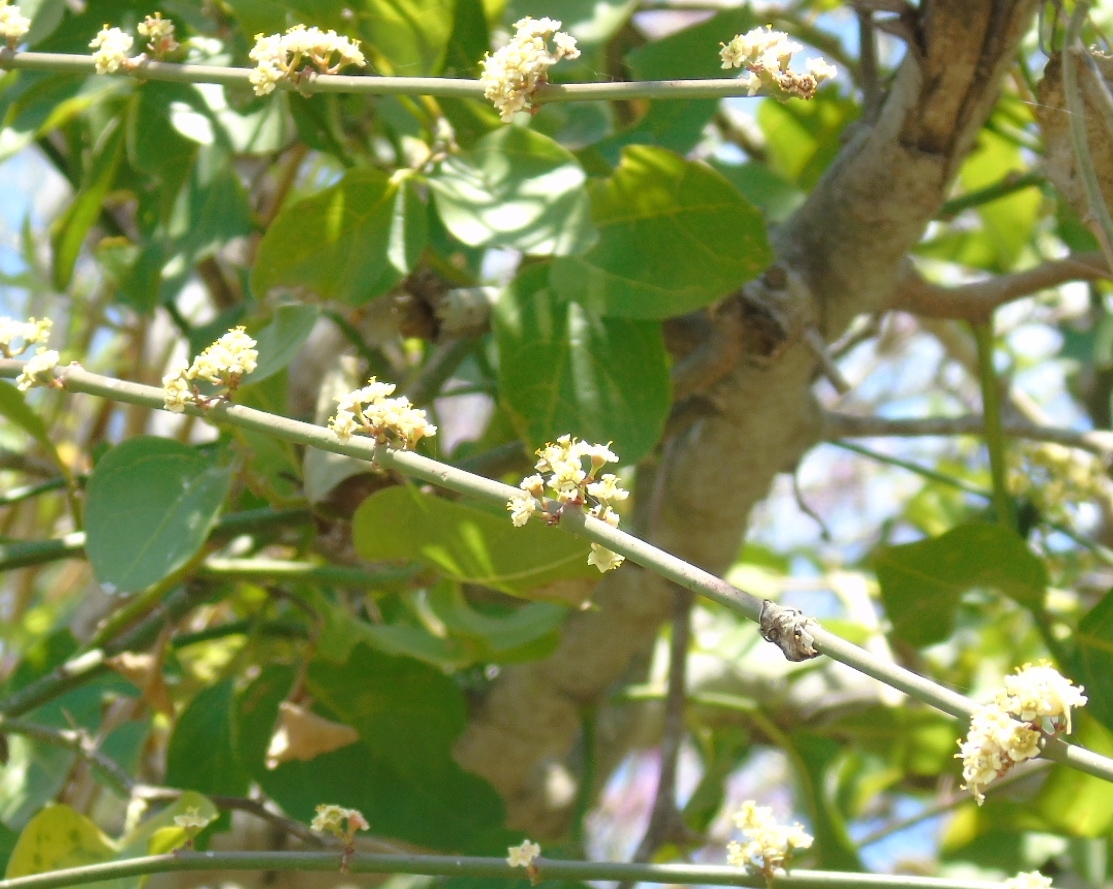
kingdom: Plantae
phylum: Tracheophyta
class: Magnoliopsida
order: Malpighiales
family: Euphorbiaceae
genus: Euphorbia
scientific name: Euphorbia
